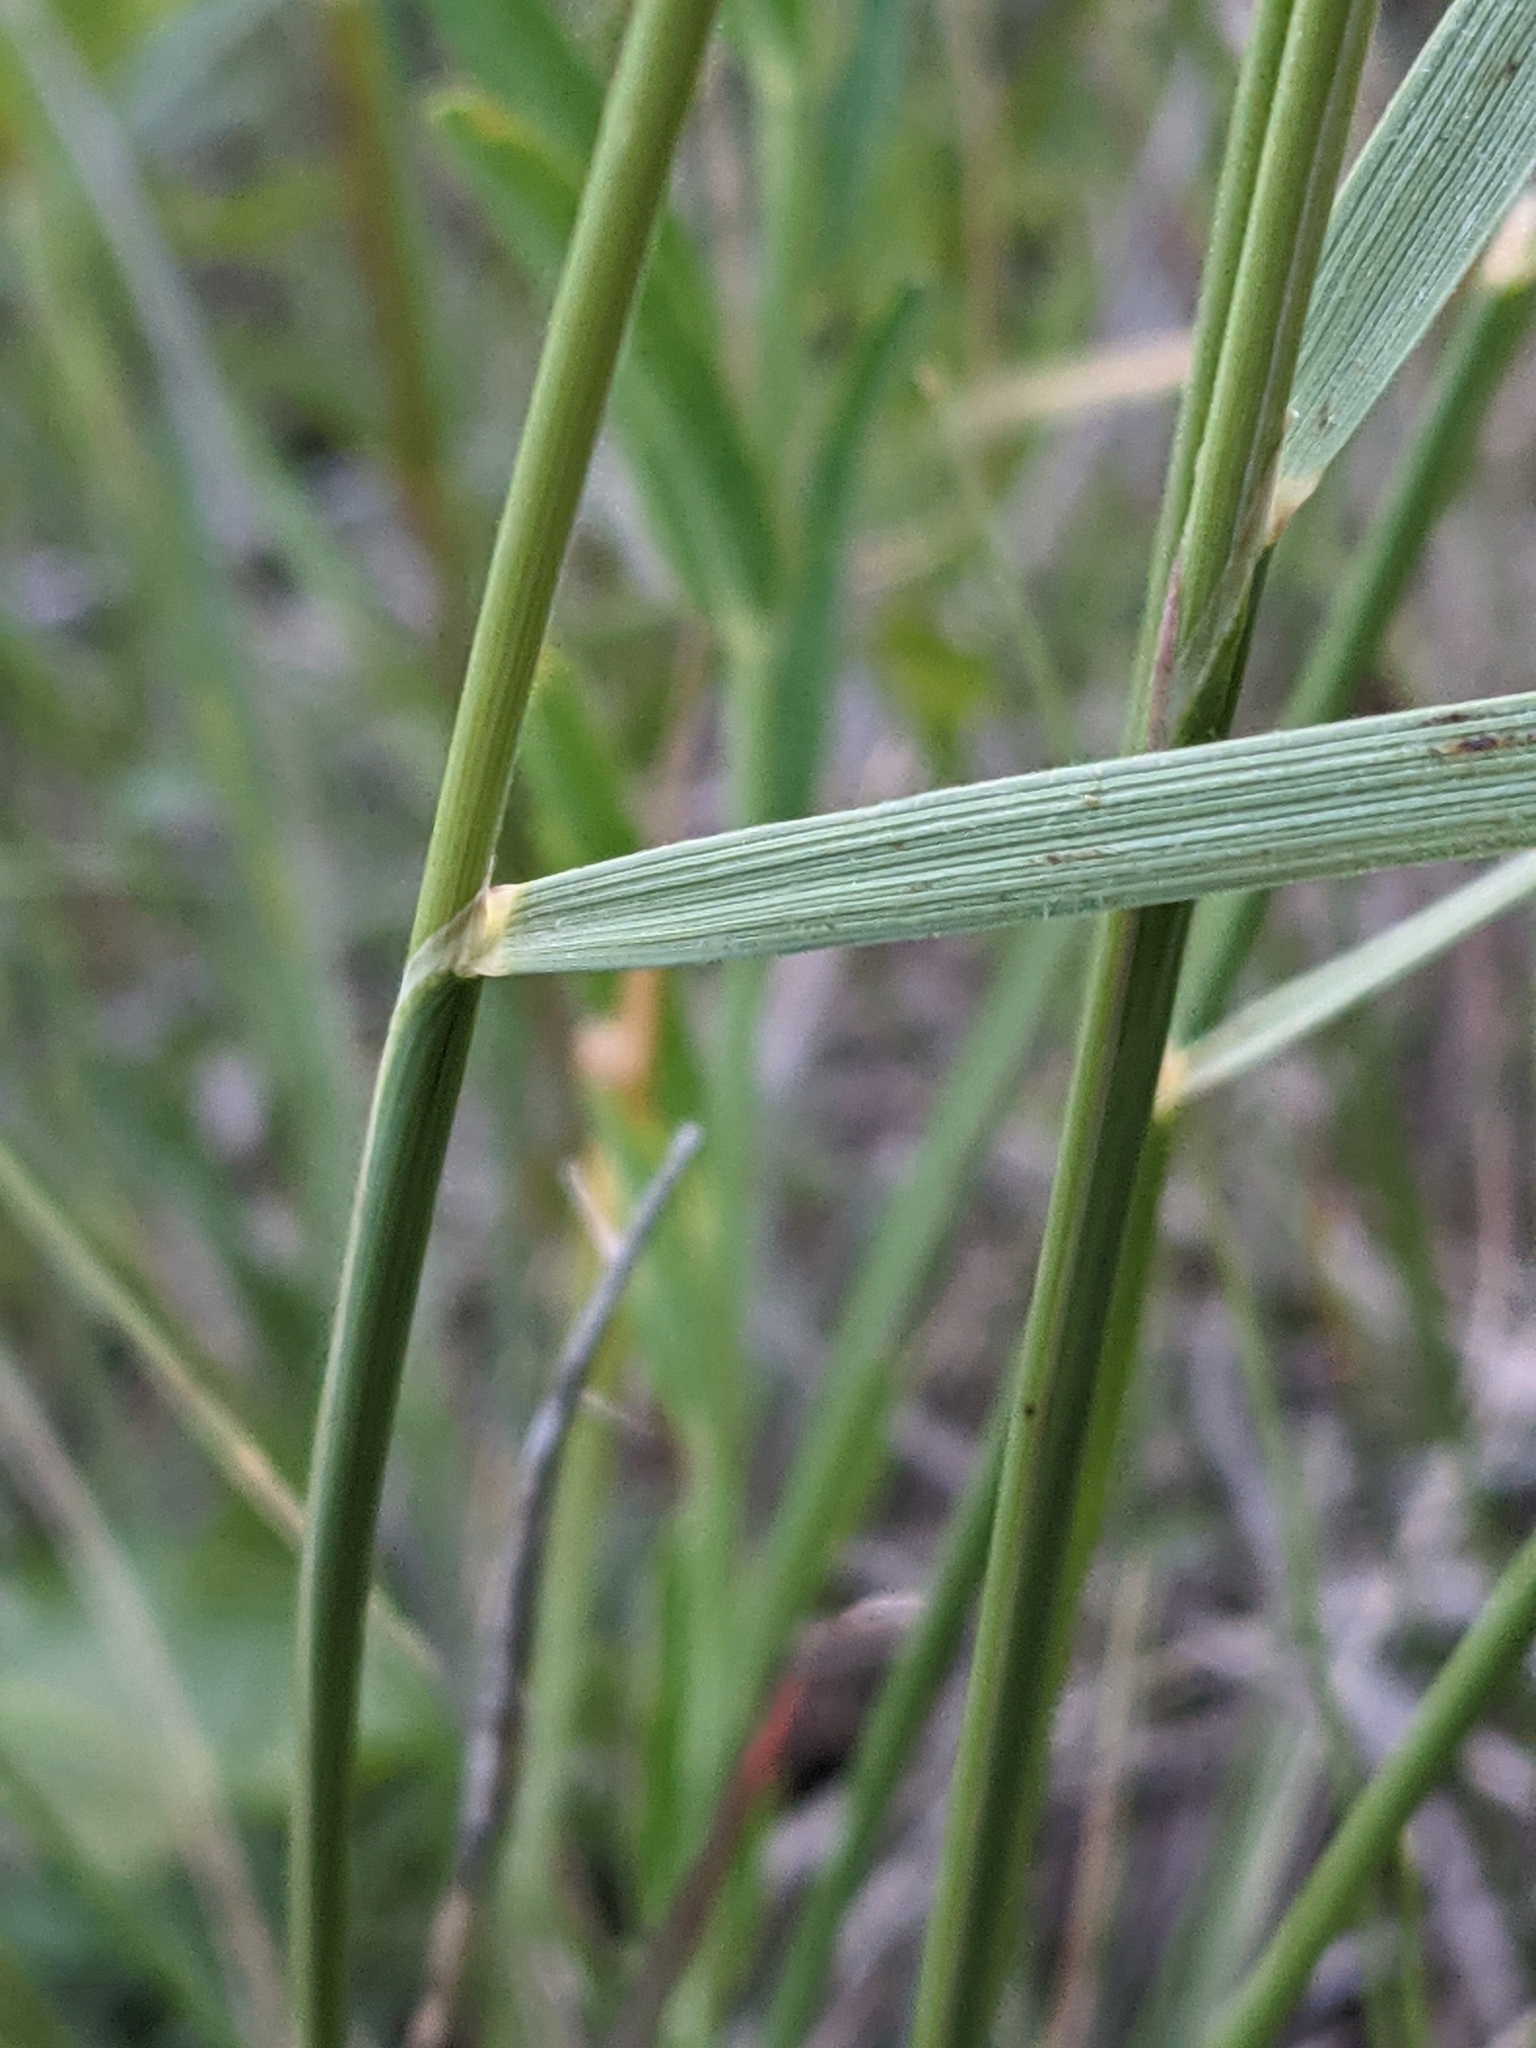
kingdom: Plantae
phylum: Tracheophyta
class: Liliopsida
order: Poales
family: Poaceae
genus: Hesperostipa
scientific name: Hesperostipa spartea
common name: Porcupine grass
